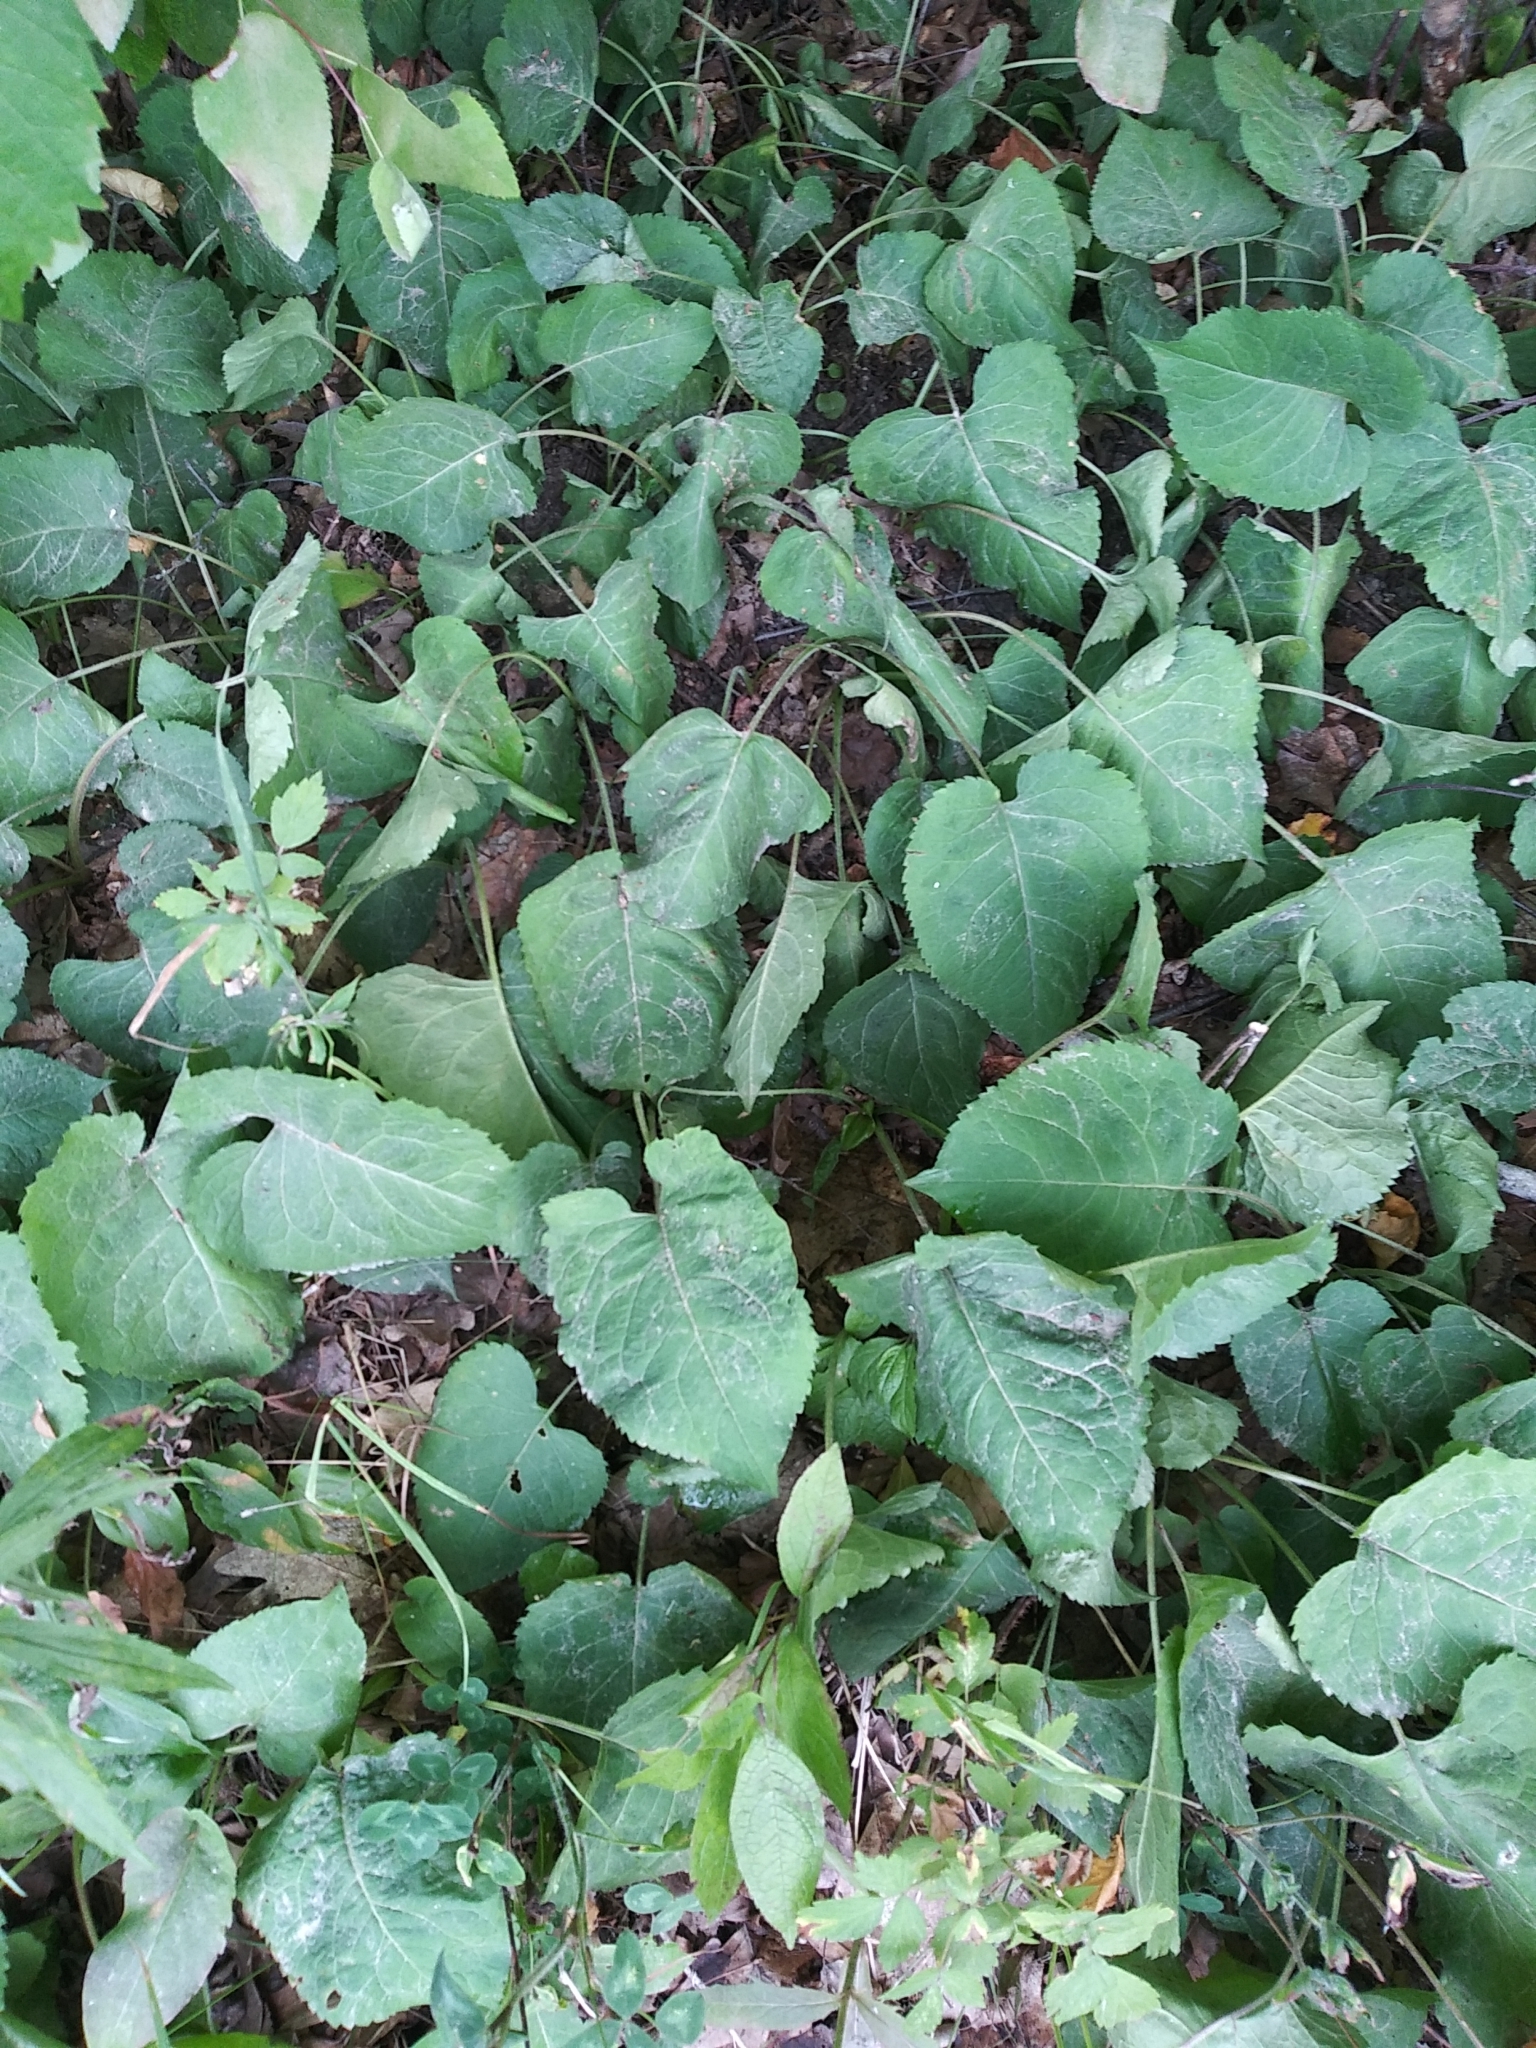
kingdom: Plantae
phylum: Tracheophyta
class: Magnoliopsida
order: Asterales
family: Asteraceae
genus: Eurybia
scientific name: Eurybia macrophylla
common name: Big-leaved aster
